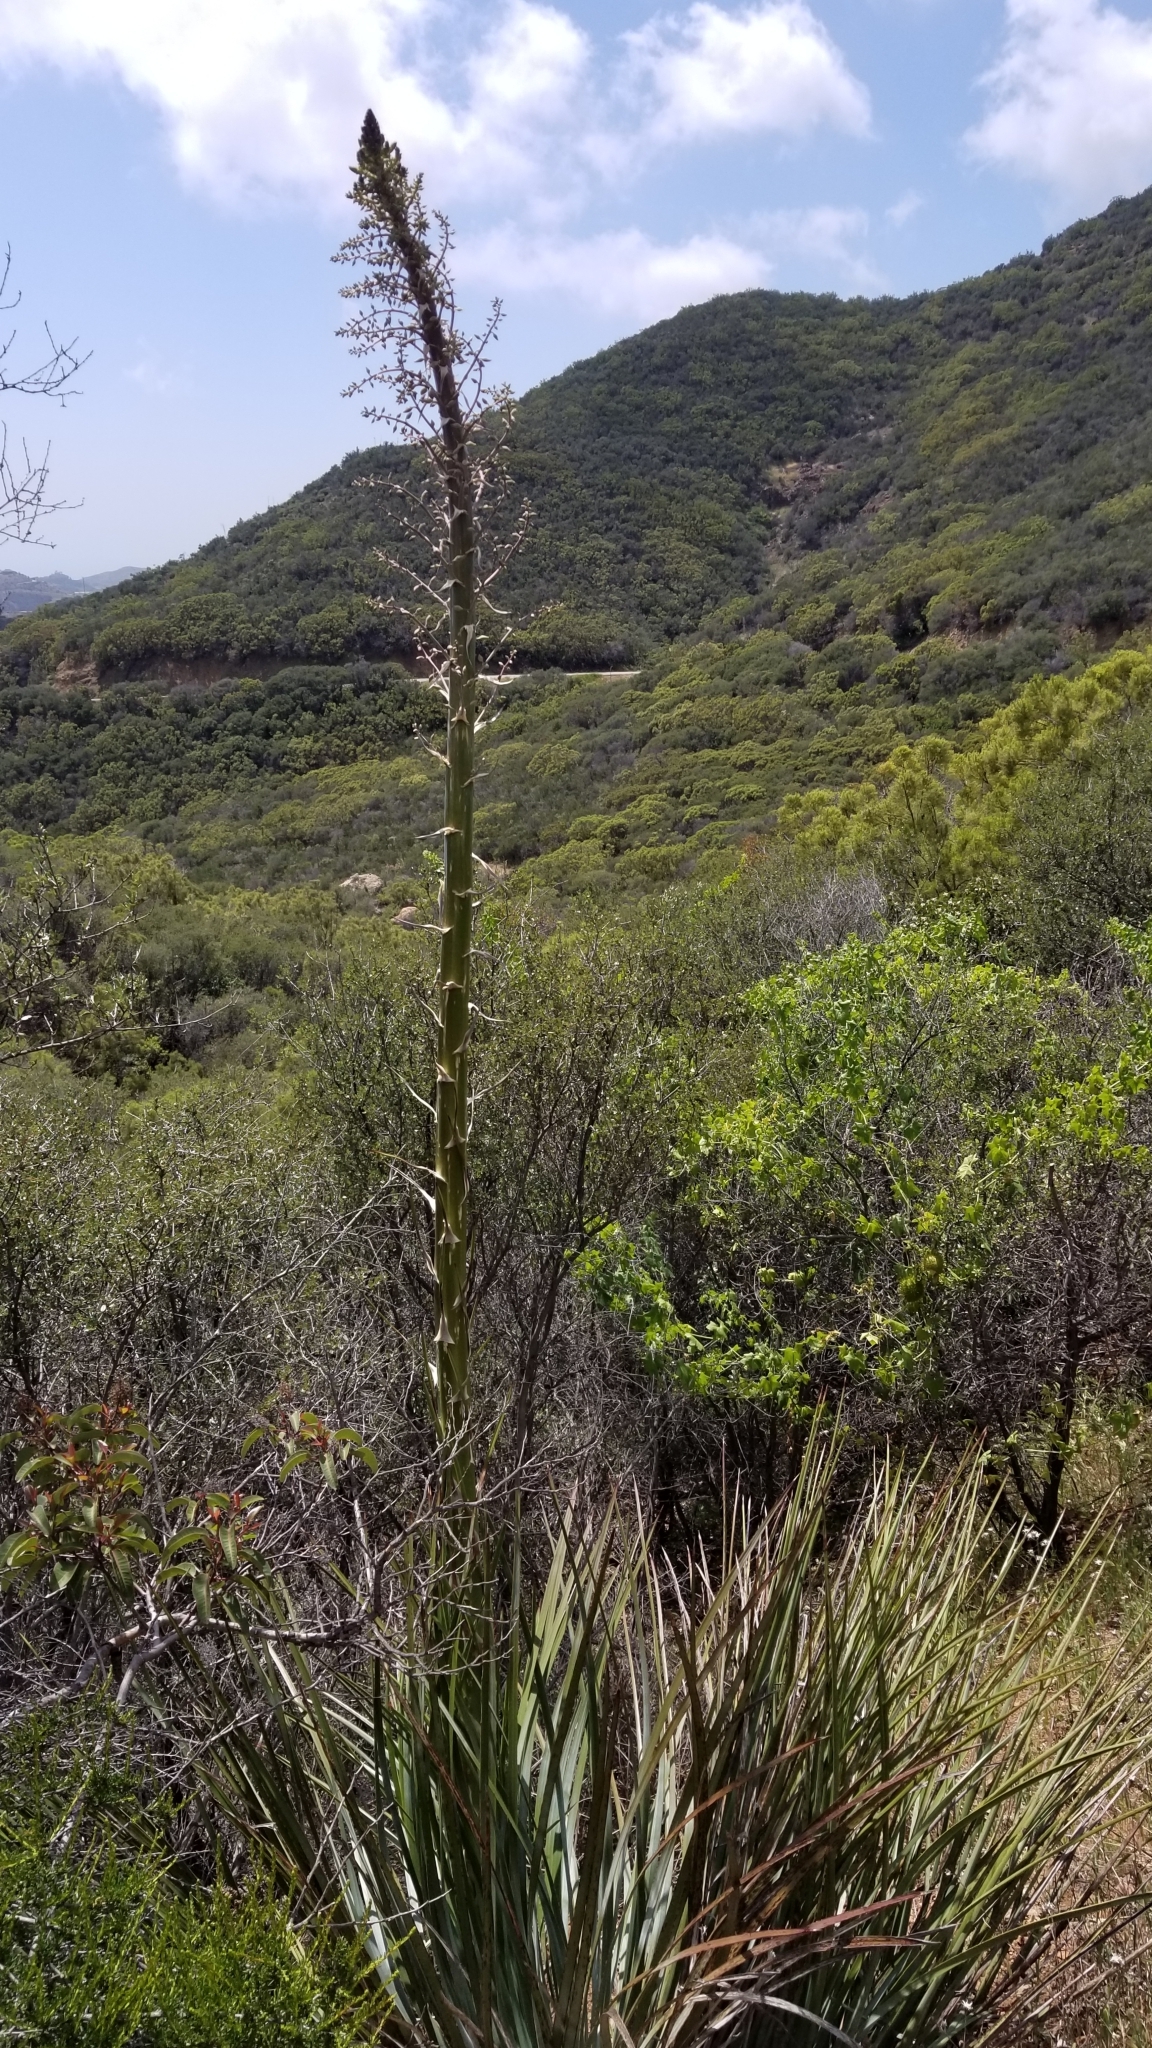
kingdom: Plantae
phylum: Tracheophyta
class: Liliopsida
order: Asparagales
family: Asparagaceae
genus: Hesperoyucca
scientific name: Hesperoyucca whipplei
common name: Our lord's-candle
